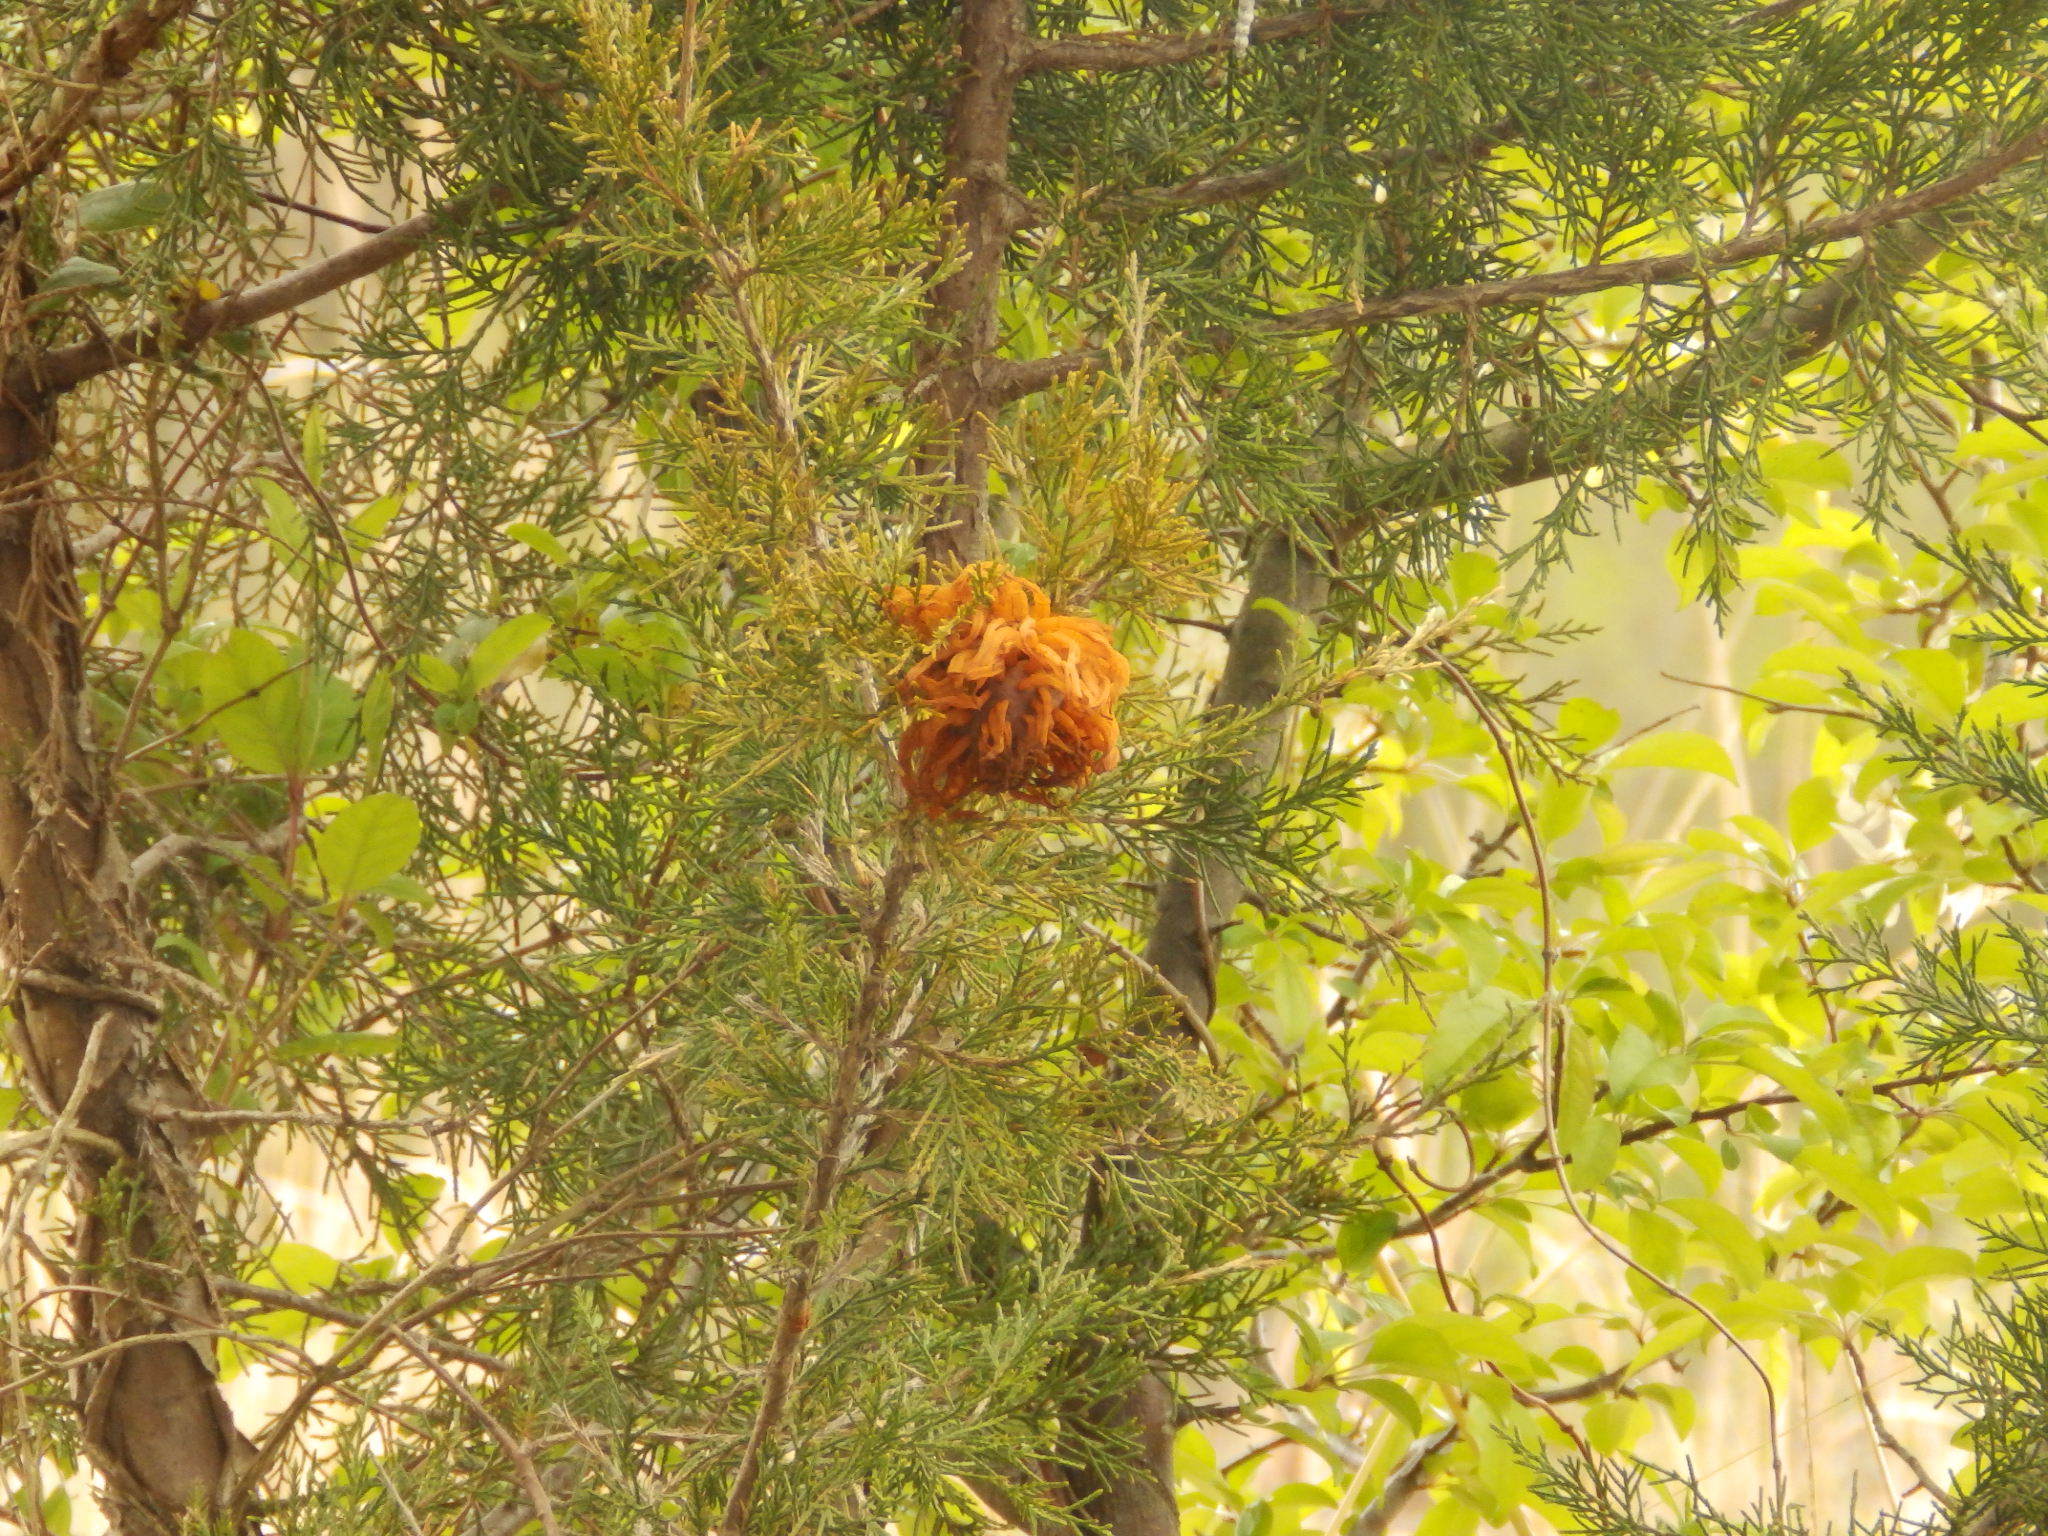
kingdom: Fungi
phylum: Basidiomycota
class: Pucciniomycetes
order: Pucciniales
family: Gymnosporangiaceae
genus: Gymnosporangium
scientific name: Gymnosporangium juniperi-virginianae
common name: Juniper-apple rust
